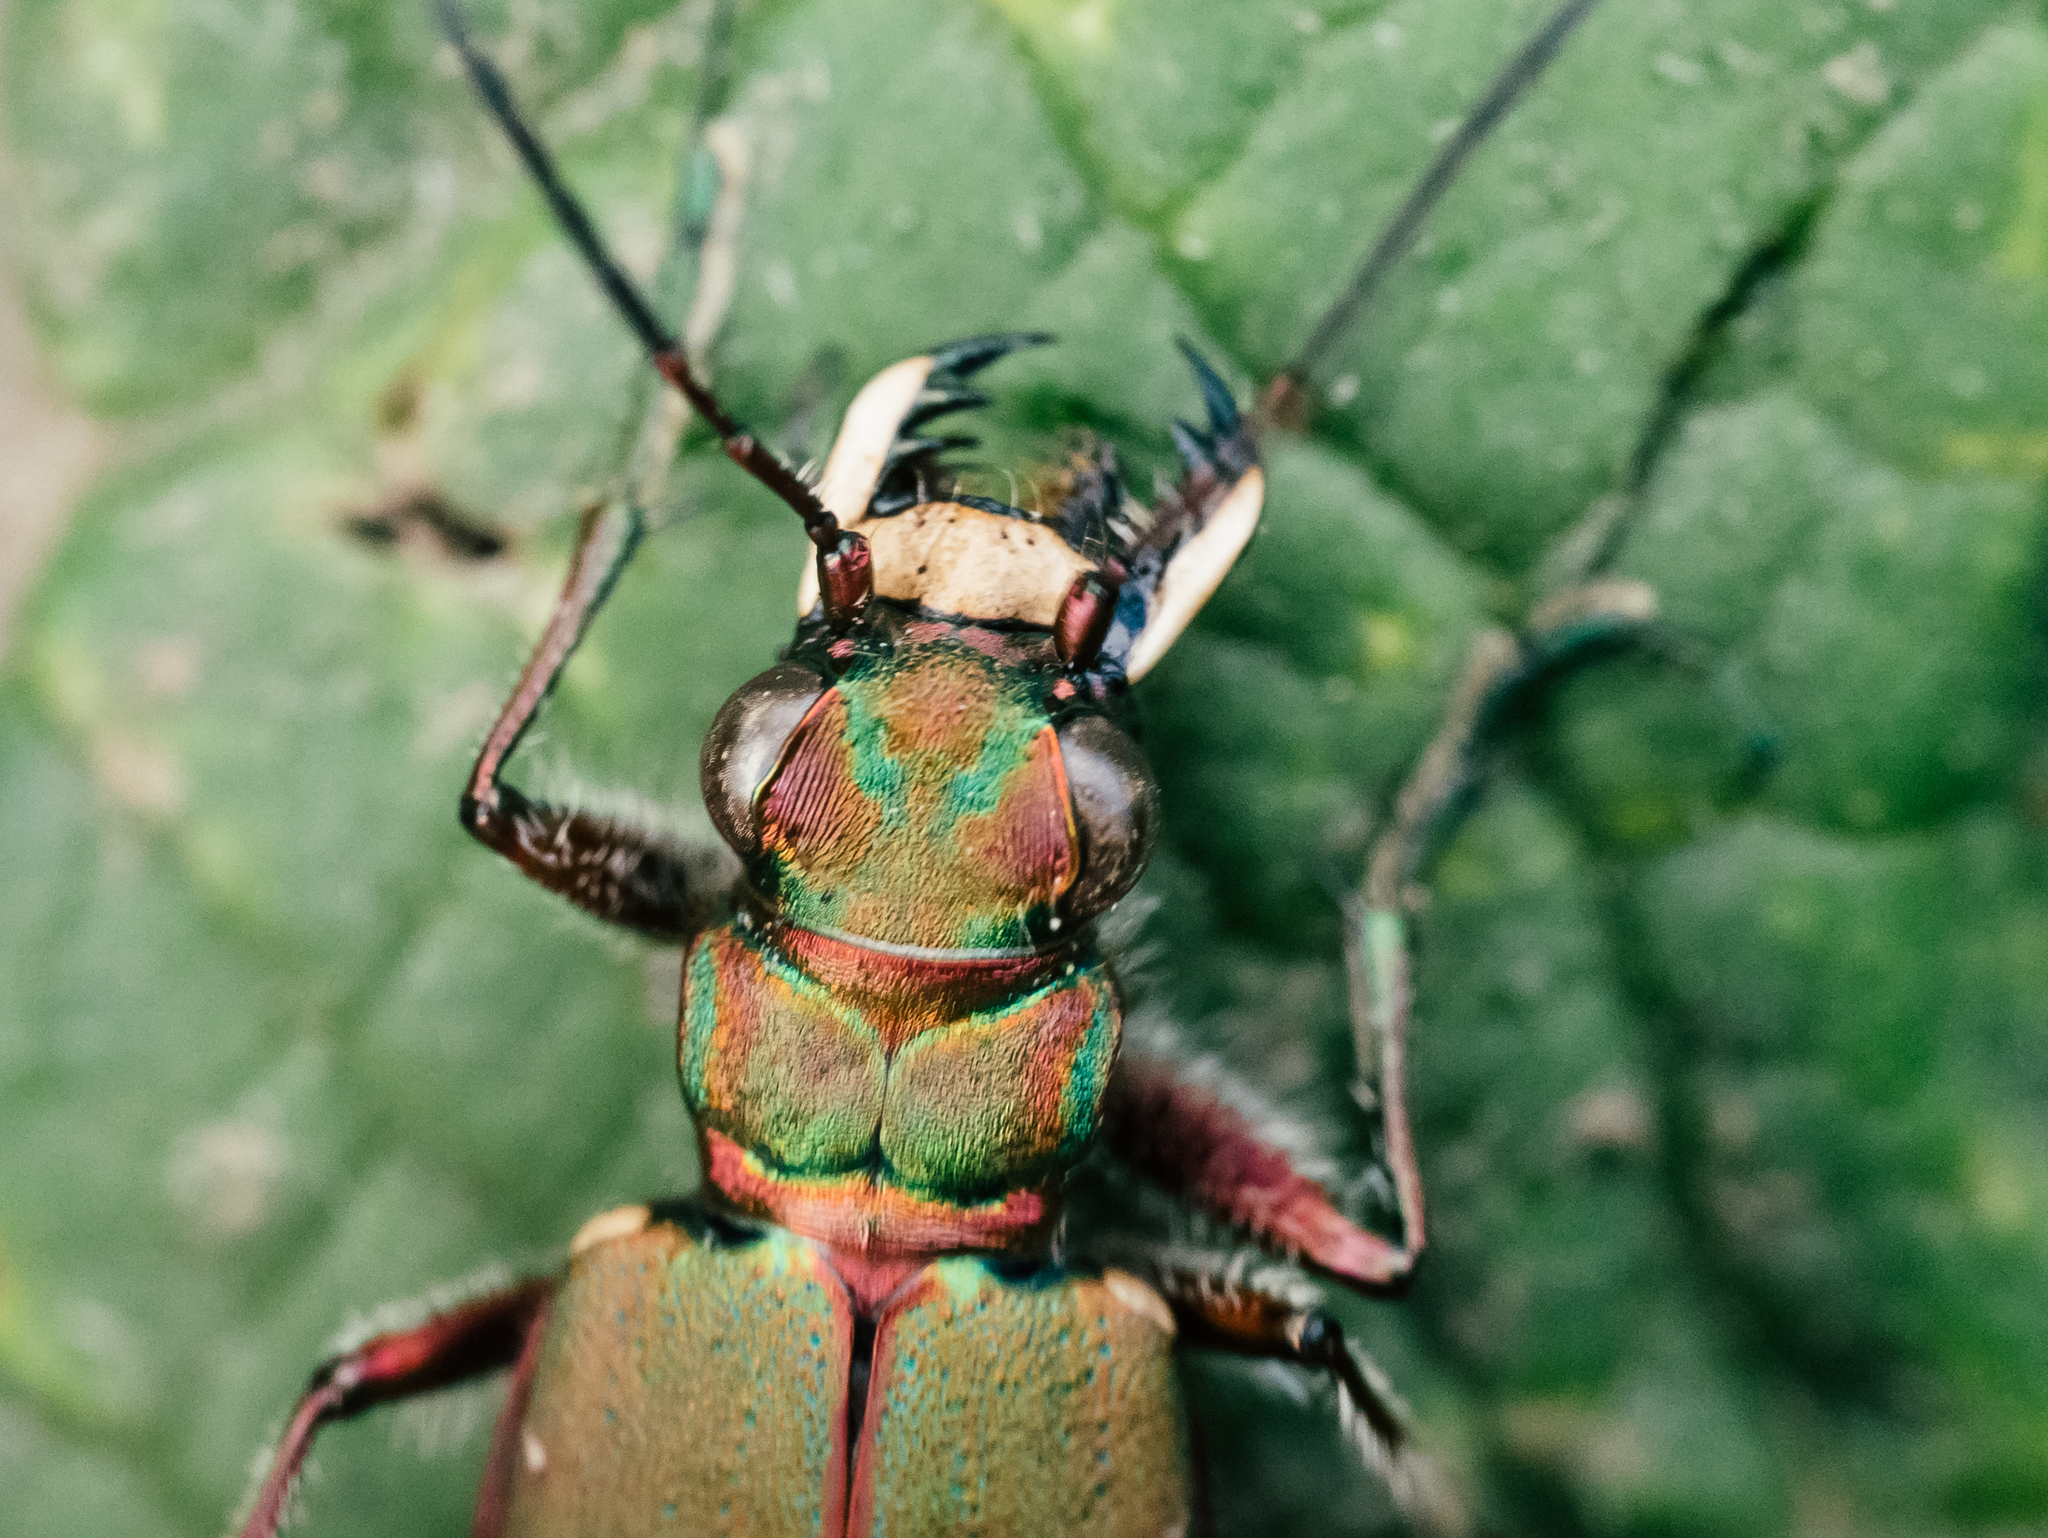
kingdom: Animalia
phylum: Arthropoda
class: Insecta
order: Coleoptera
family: Carabidae
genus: Cicindela
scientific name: Cicindela campestris
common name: Common tiger beetle
